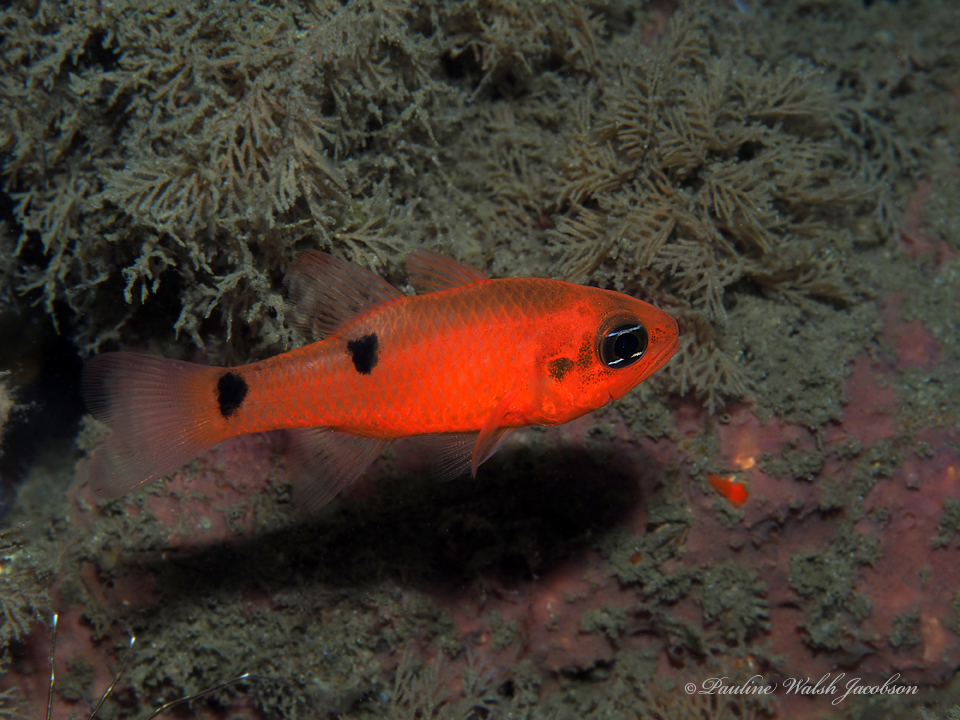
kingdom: Animalia
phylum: Chordata
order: Perciformes
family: Apogonidae
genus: Apogon
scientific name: Apogon pseudomaculatus
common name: Twospot cardinalfish
